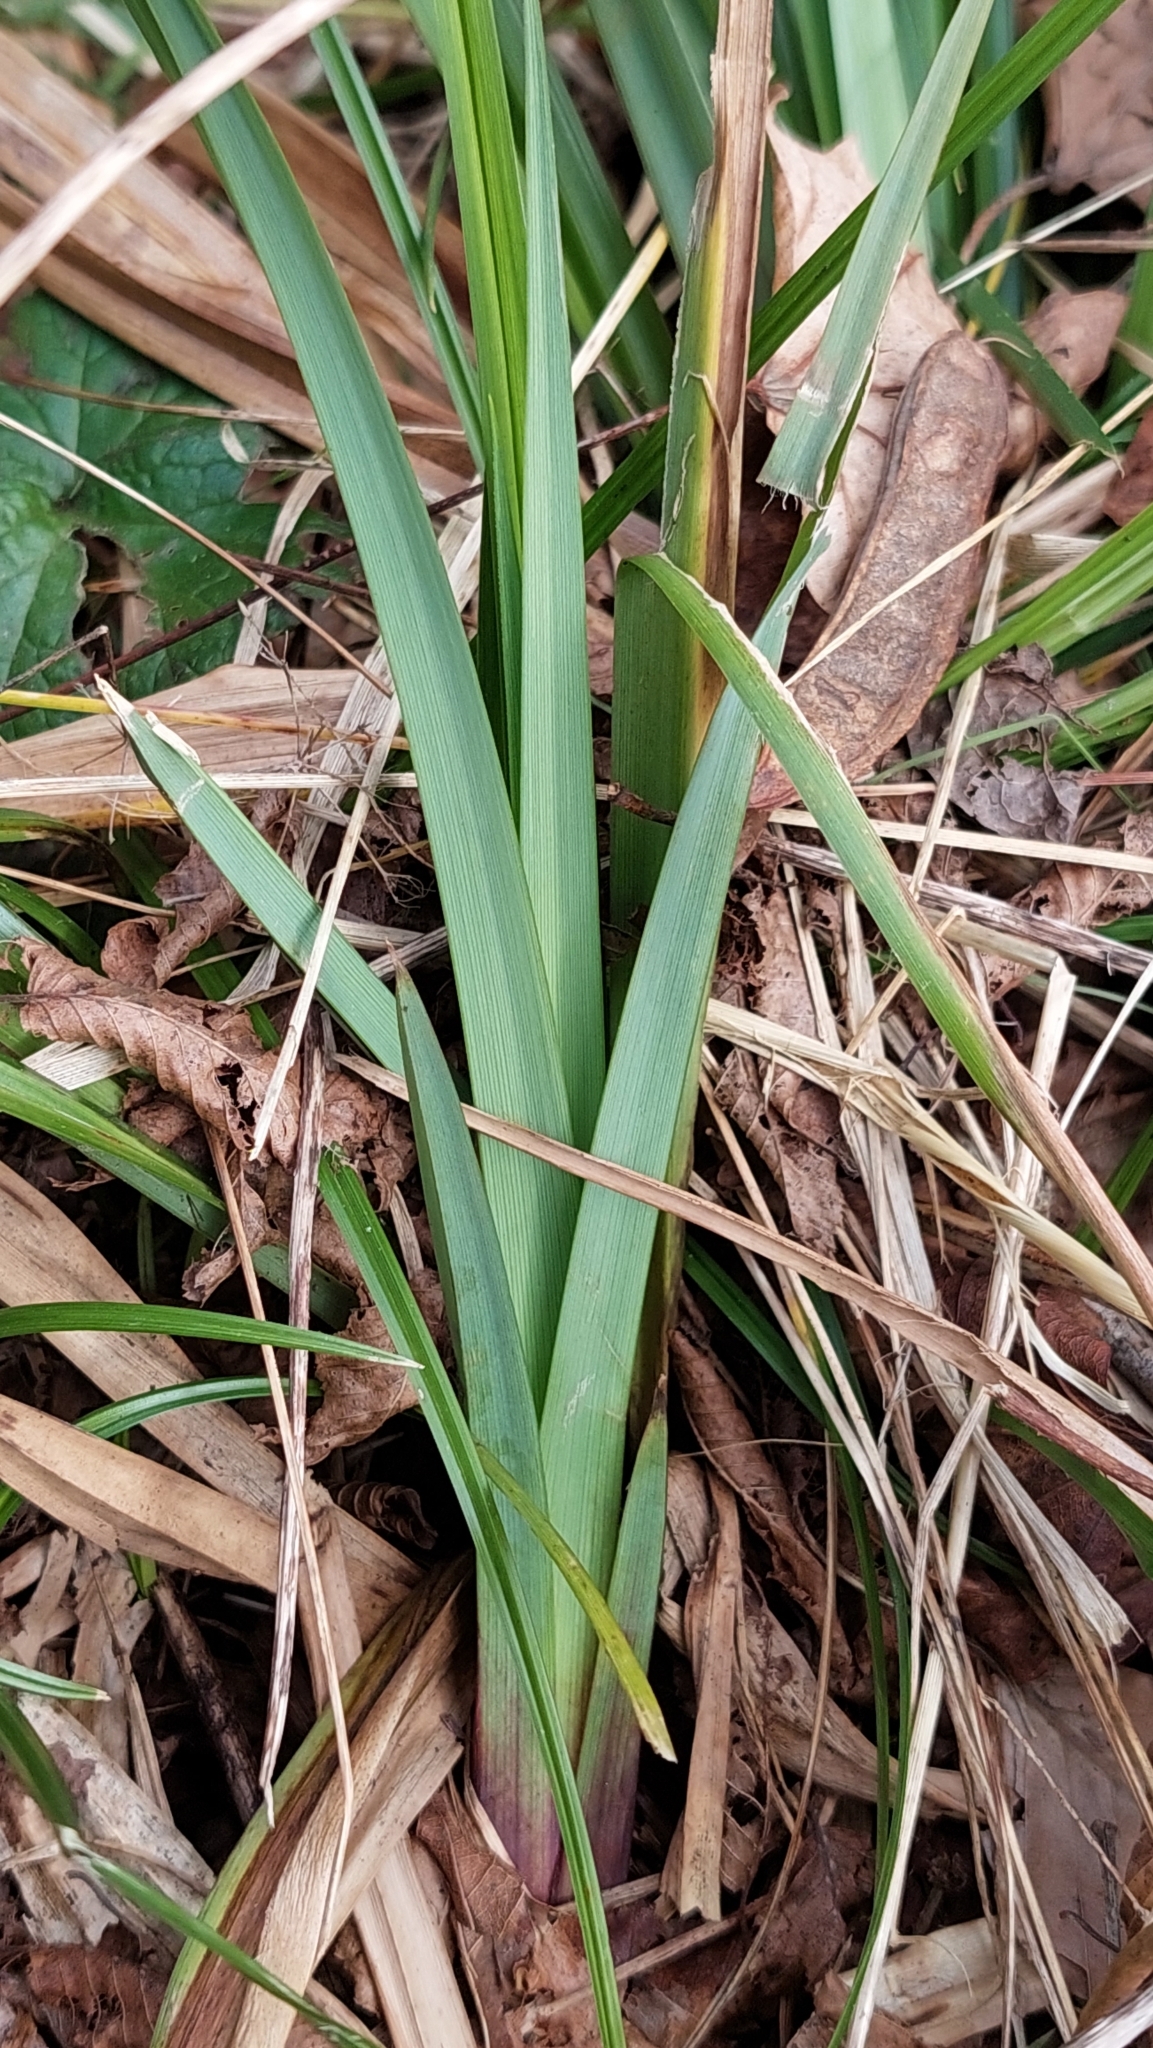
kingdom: Plantae
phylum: Tracheophyta
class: Liliopsida
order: Poales
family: Cyperaceae
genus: Carex
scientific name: Carex pendula
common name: Pendulous sedge
